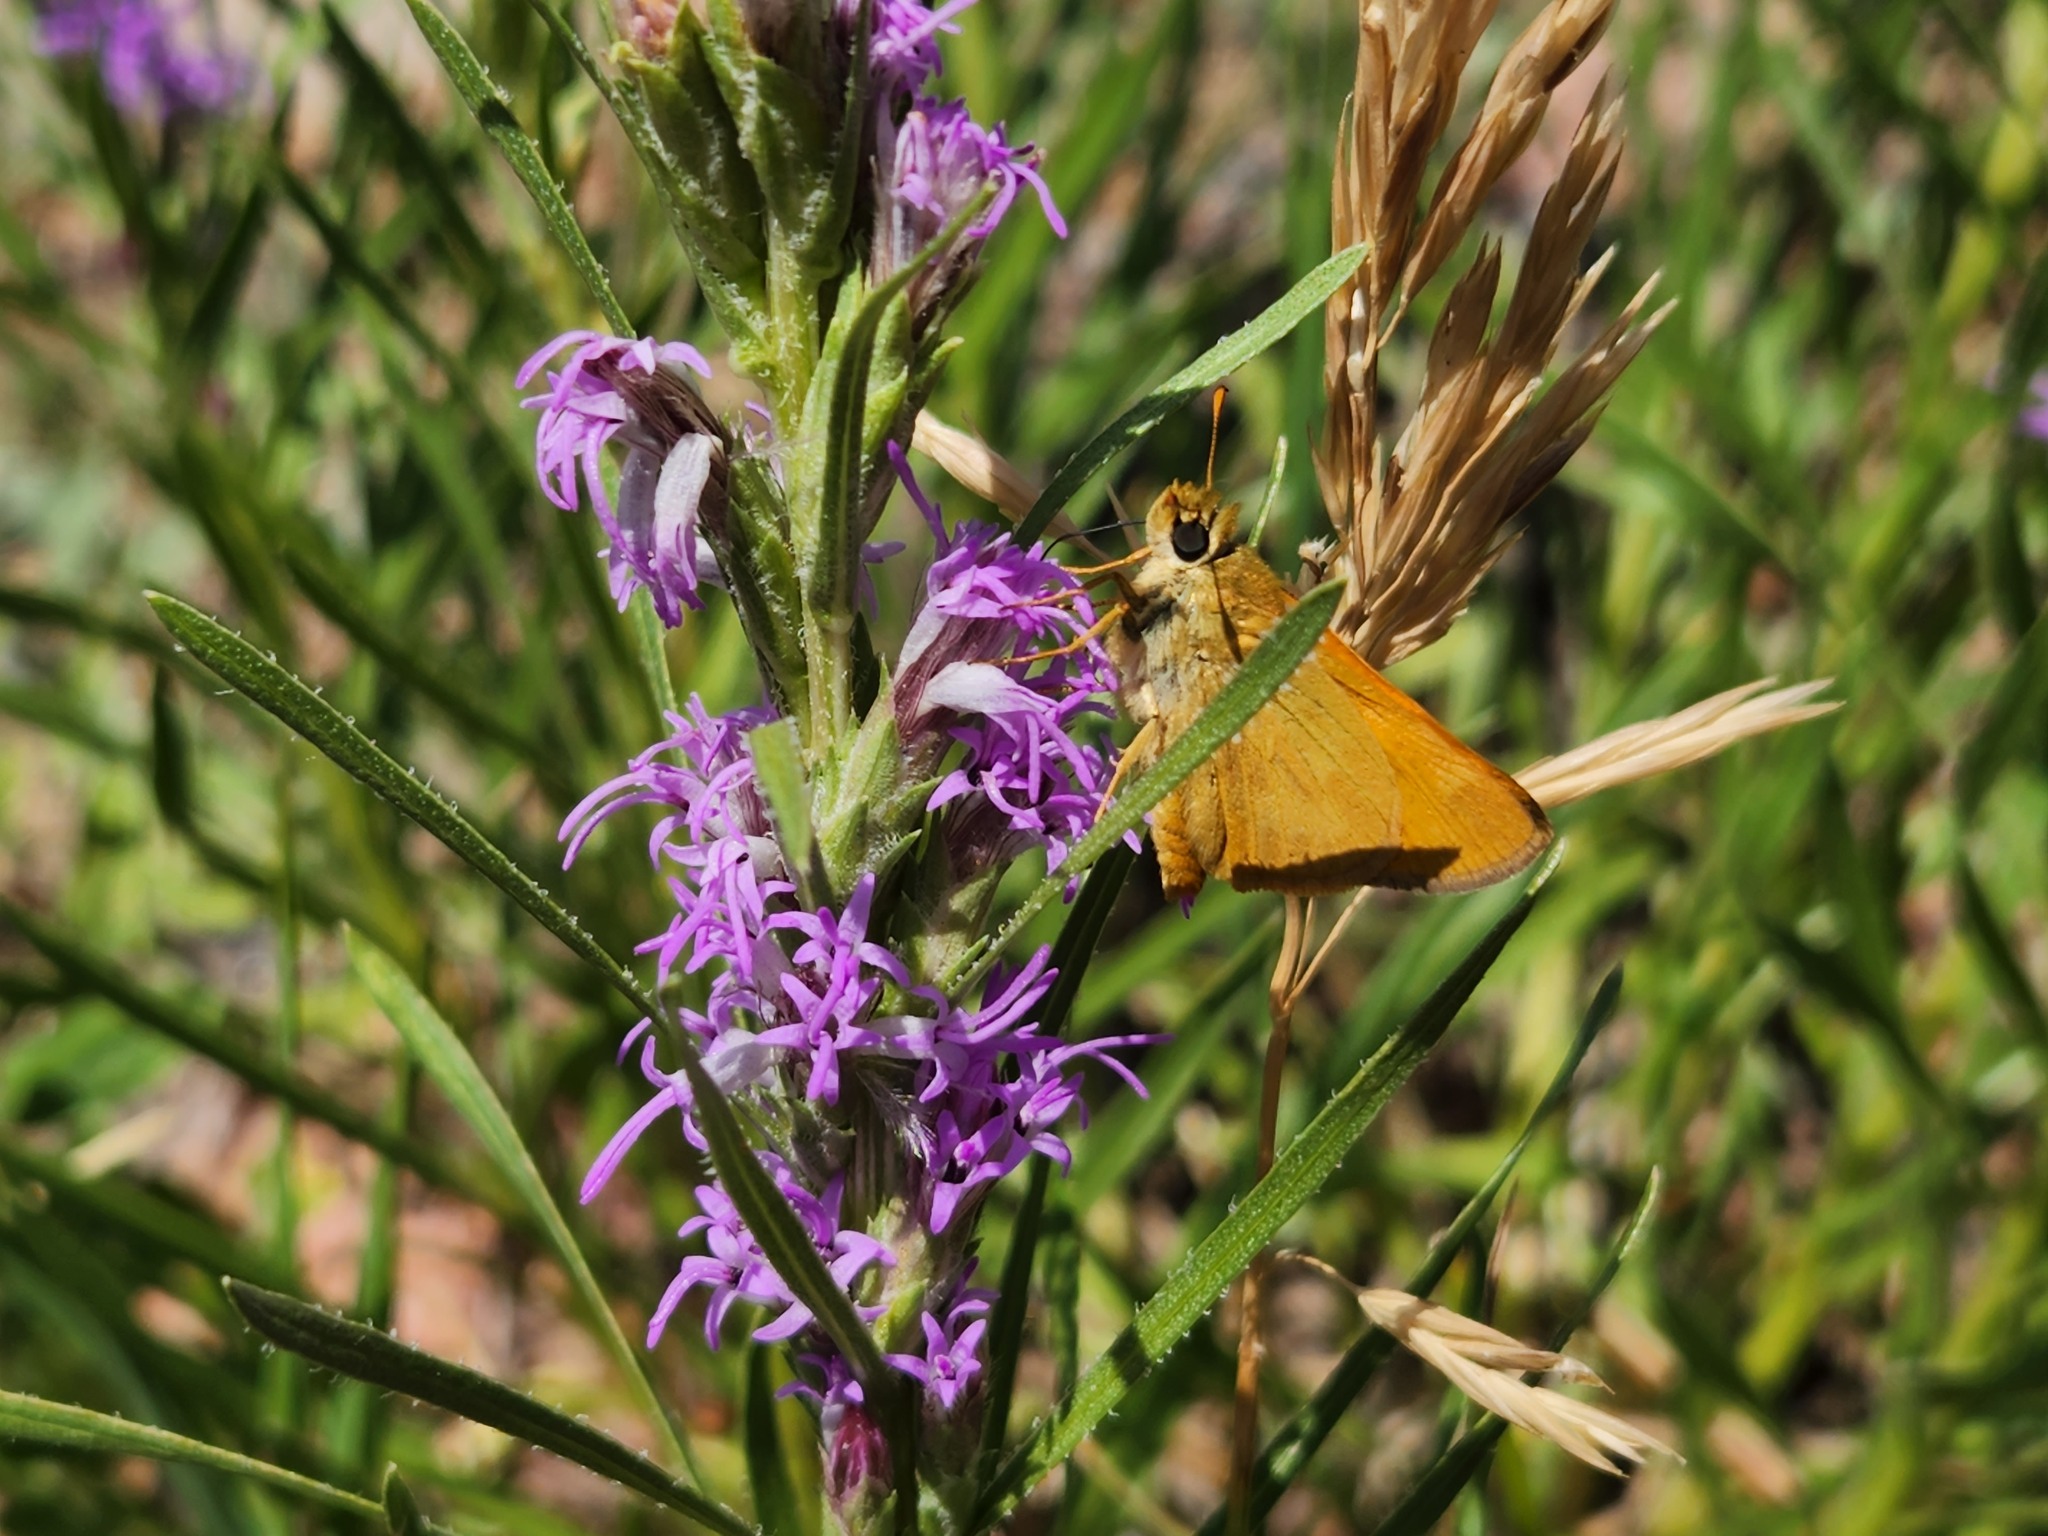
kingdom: Animalia
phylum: Arthropoda
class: Insecta
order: Lepidoptera
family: Hesperiidae
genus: Ochlodes
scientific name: Ochlodes sylvanoides
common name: Woodland skipper
